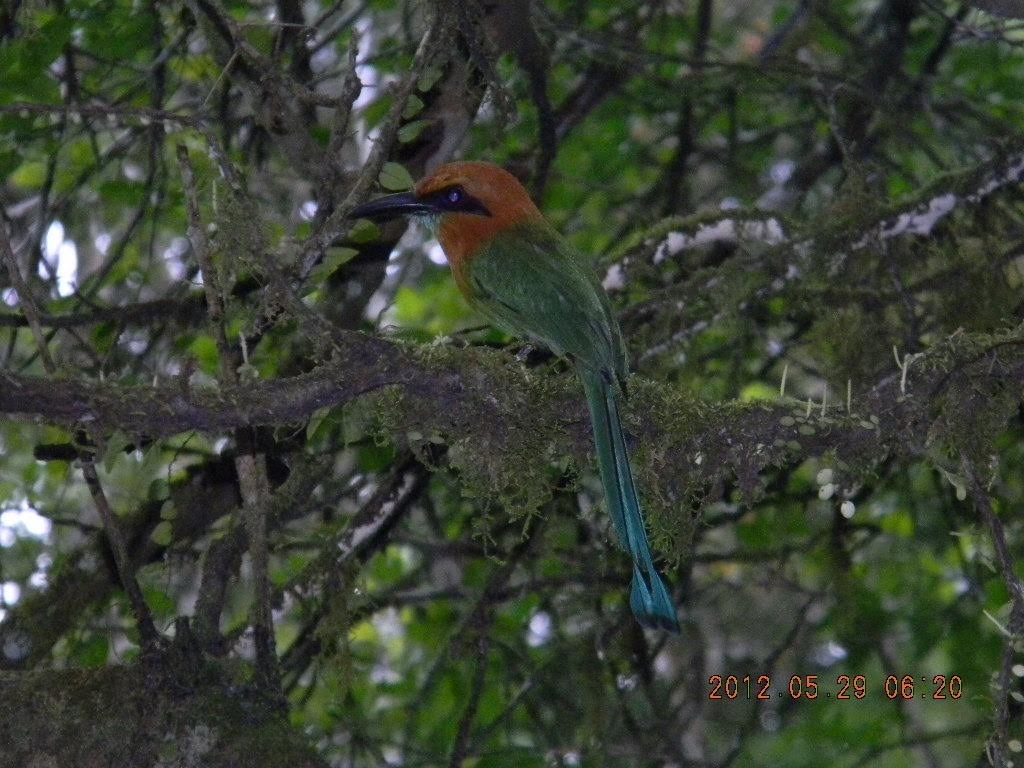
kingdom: Animalia
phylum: Chordata
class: Aves
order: Coraciiformes
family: Momotidae
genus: Electron
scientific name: Electron platyrhynchum
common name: Broad-billed motmot
